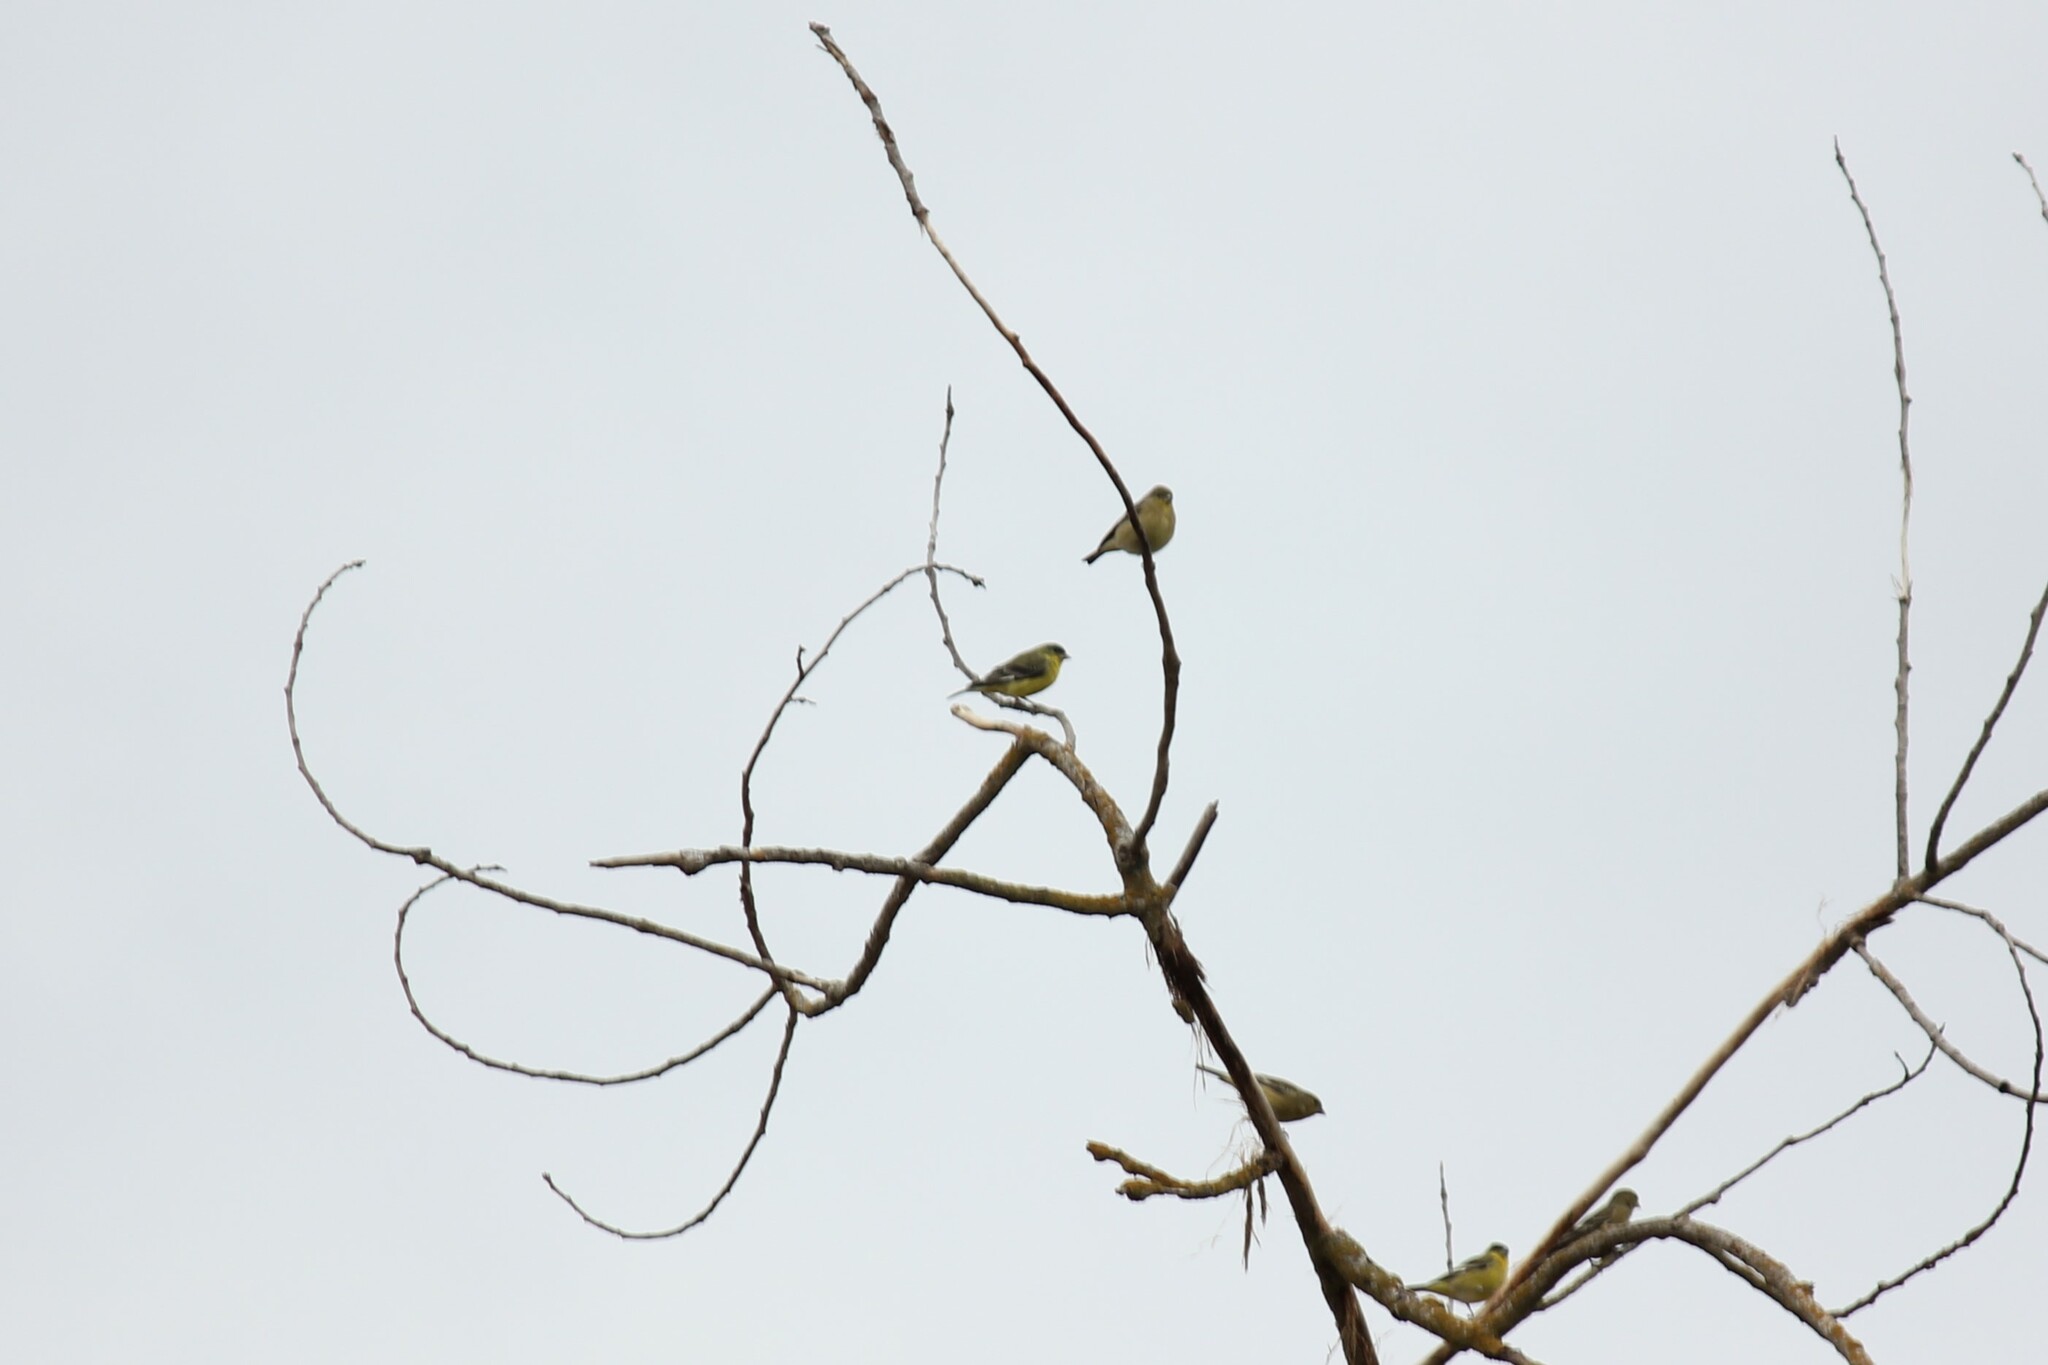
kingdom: Animalia
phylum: Chordata
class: Aves
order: Passeriformes
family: Fringillidae
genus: Spinus
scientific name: Spinus psaltria
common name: Lesser goldfinch
